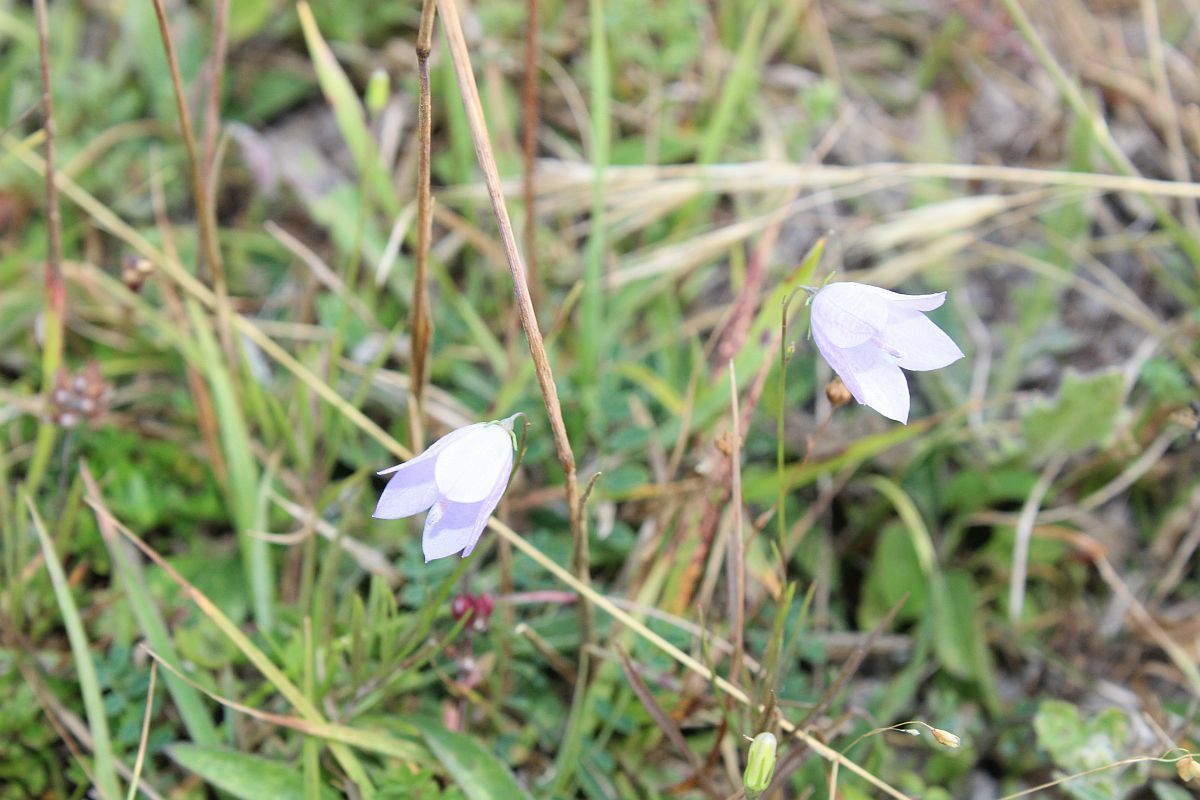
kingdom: Plantae
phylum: Tracheophyta
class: Magnoliopsida
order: Asterales
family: Campanulaceae
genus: Campanula
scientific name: Campanula rotundifolia
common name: Harebell
